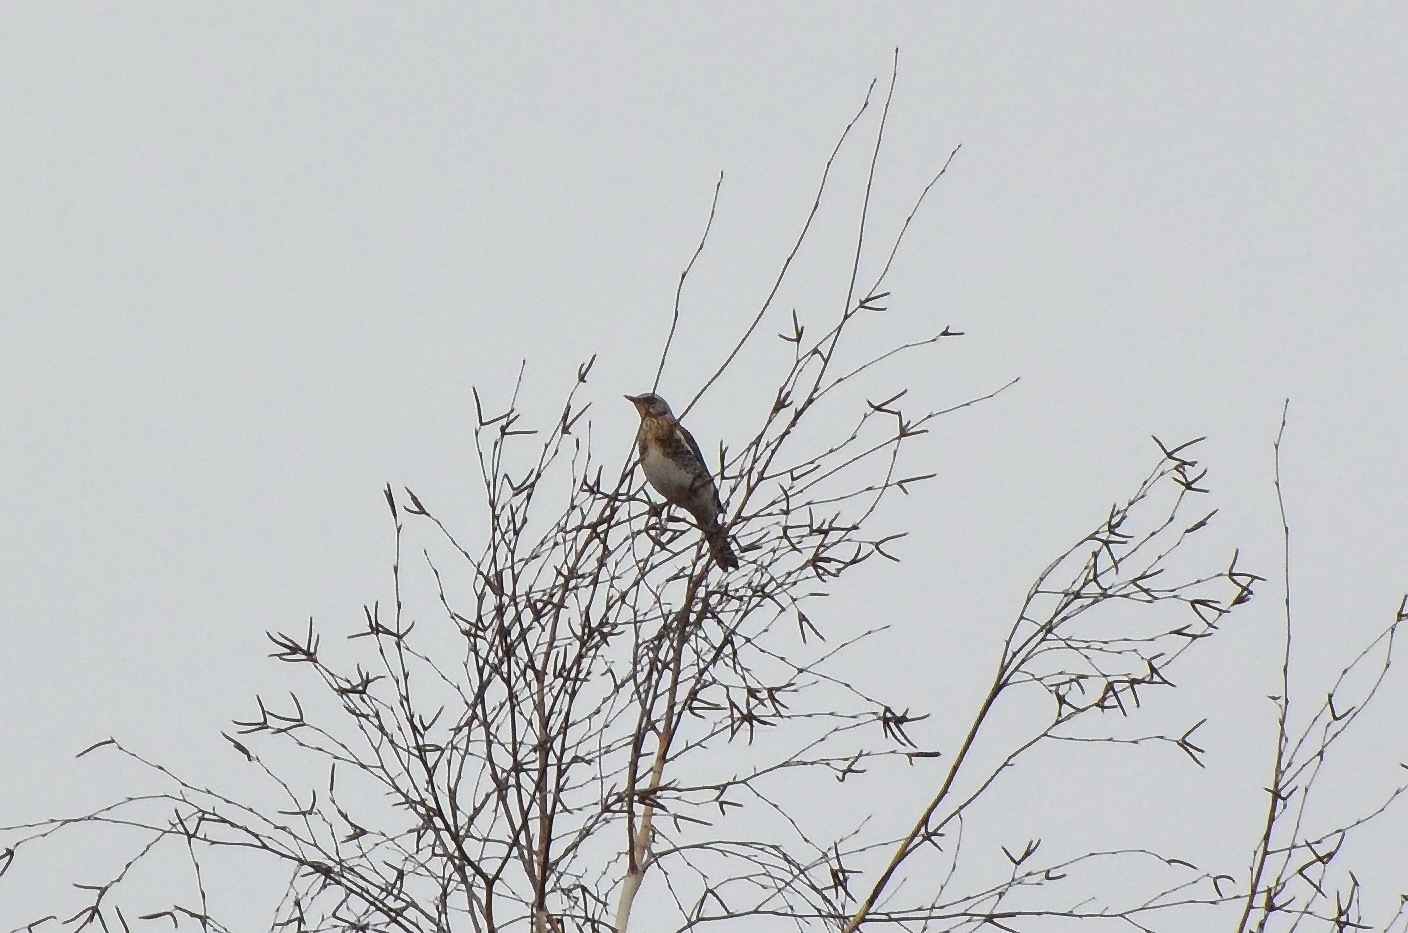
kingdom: Animalia
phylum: Chordata
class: Aves
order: Passeriformes
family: Turdidae
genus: Turdus
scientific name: Turdus pilaris
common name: Fieldfare
